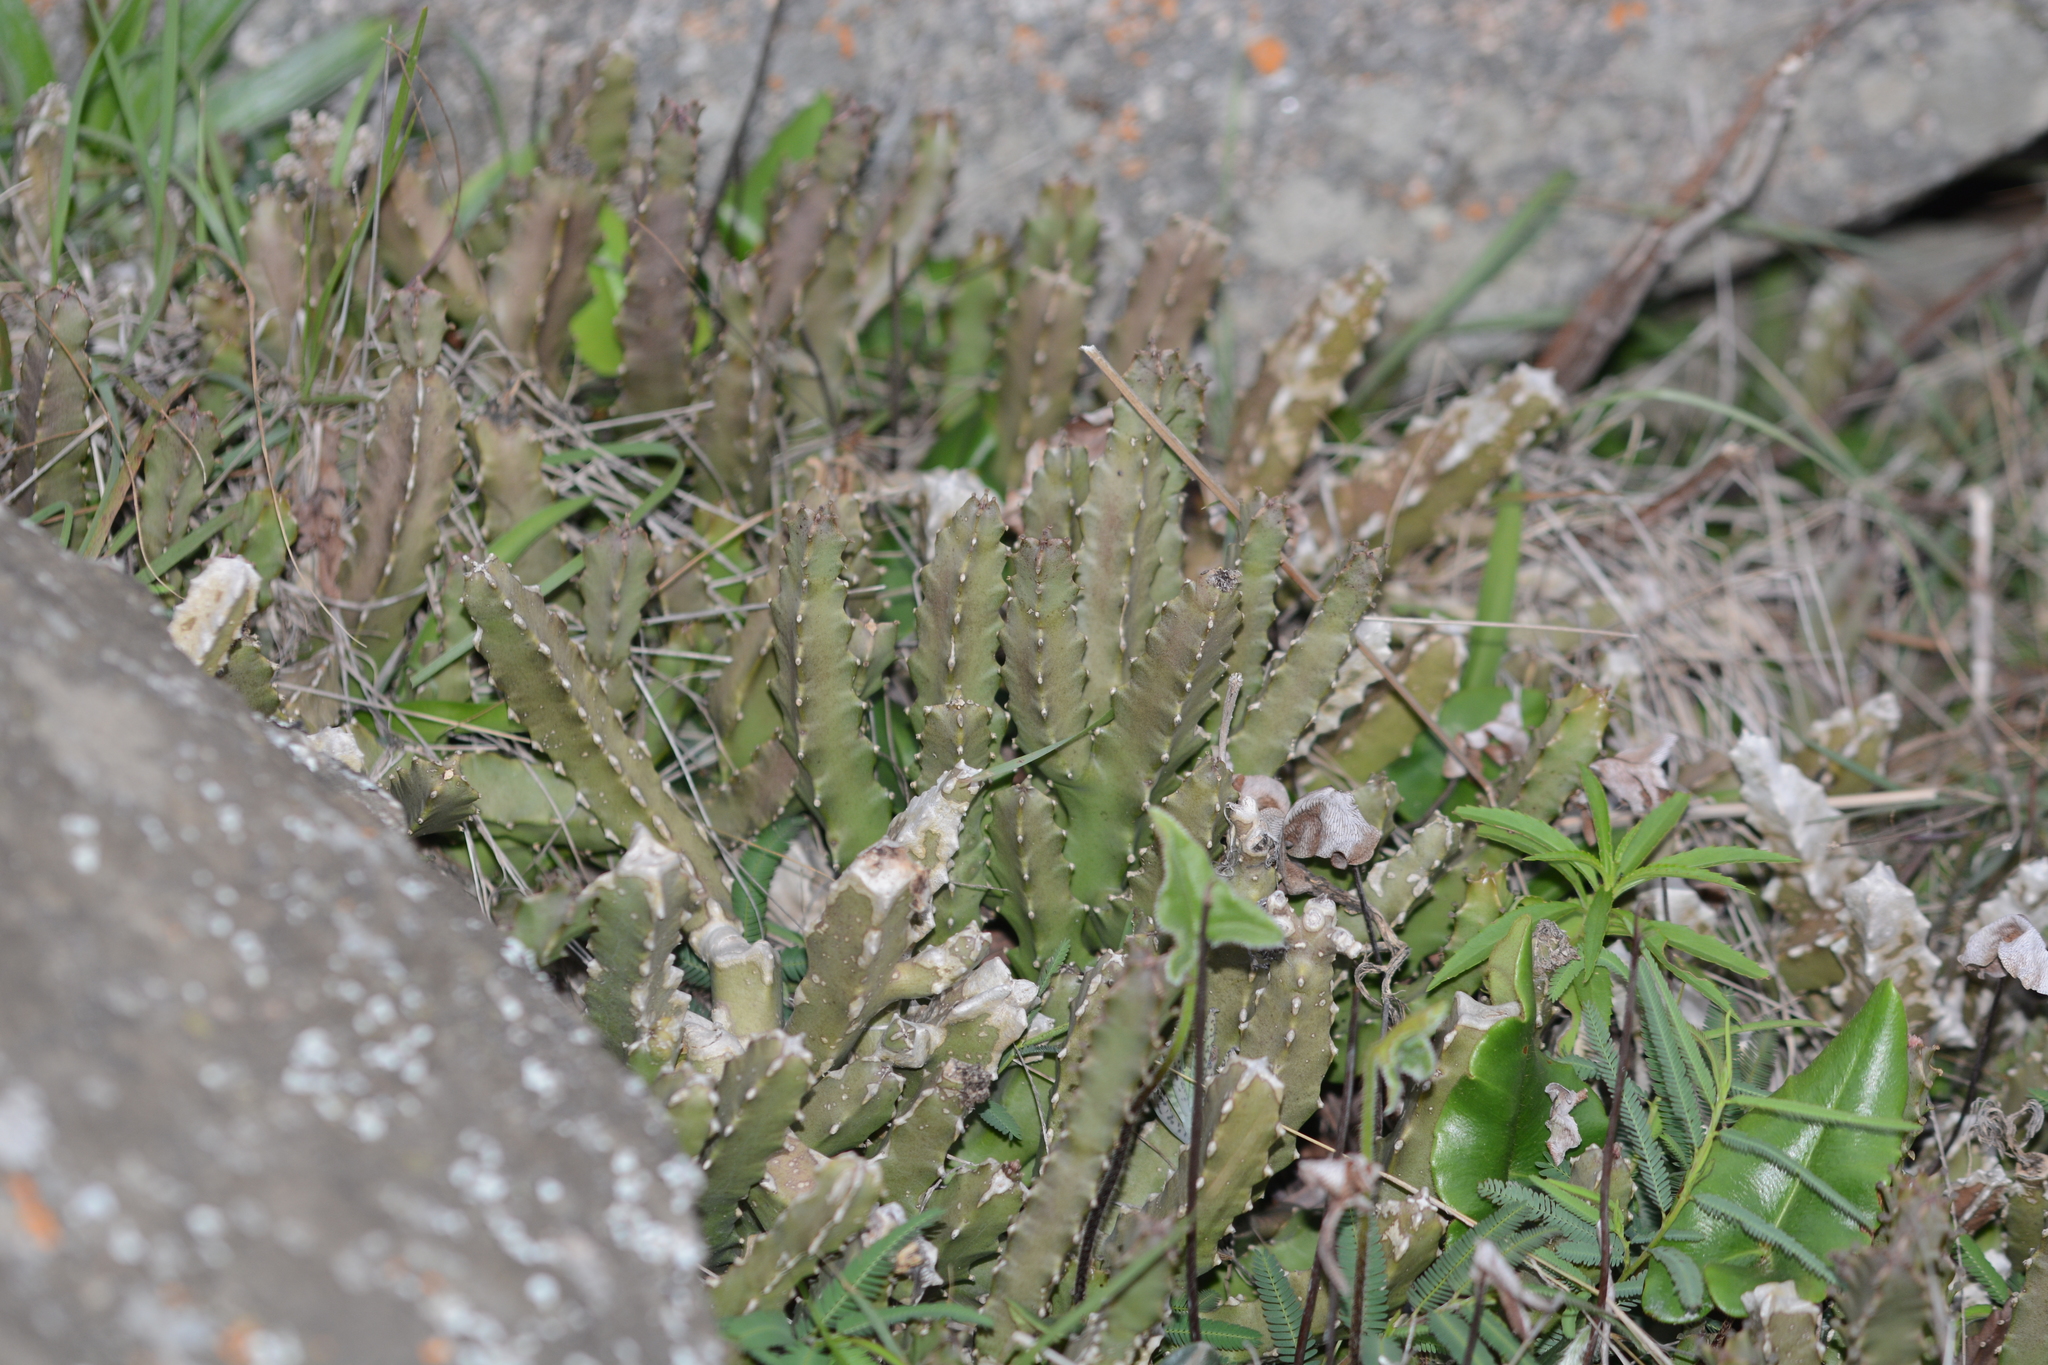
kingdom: Plantae
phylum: Tracheophyta
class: Magnoliopsida
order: Gentianales
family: Apocynaceae
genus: Ceropegia
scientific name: Ceropegia umbellata
